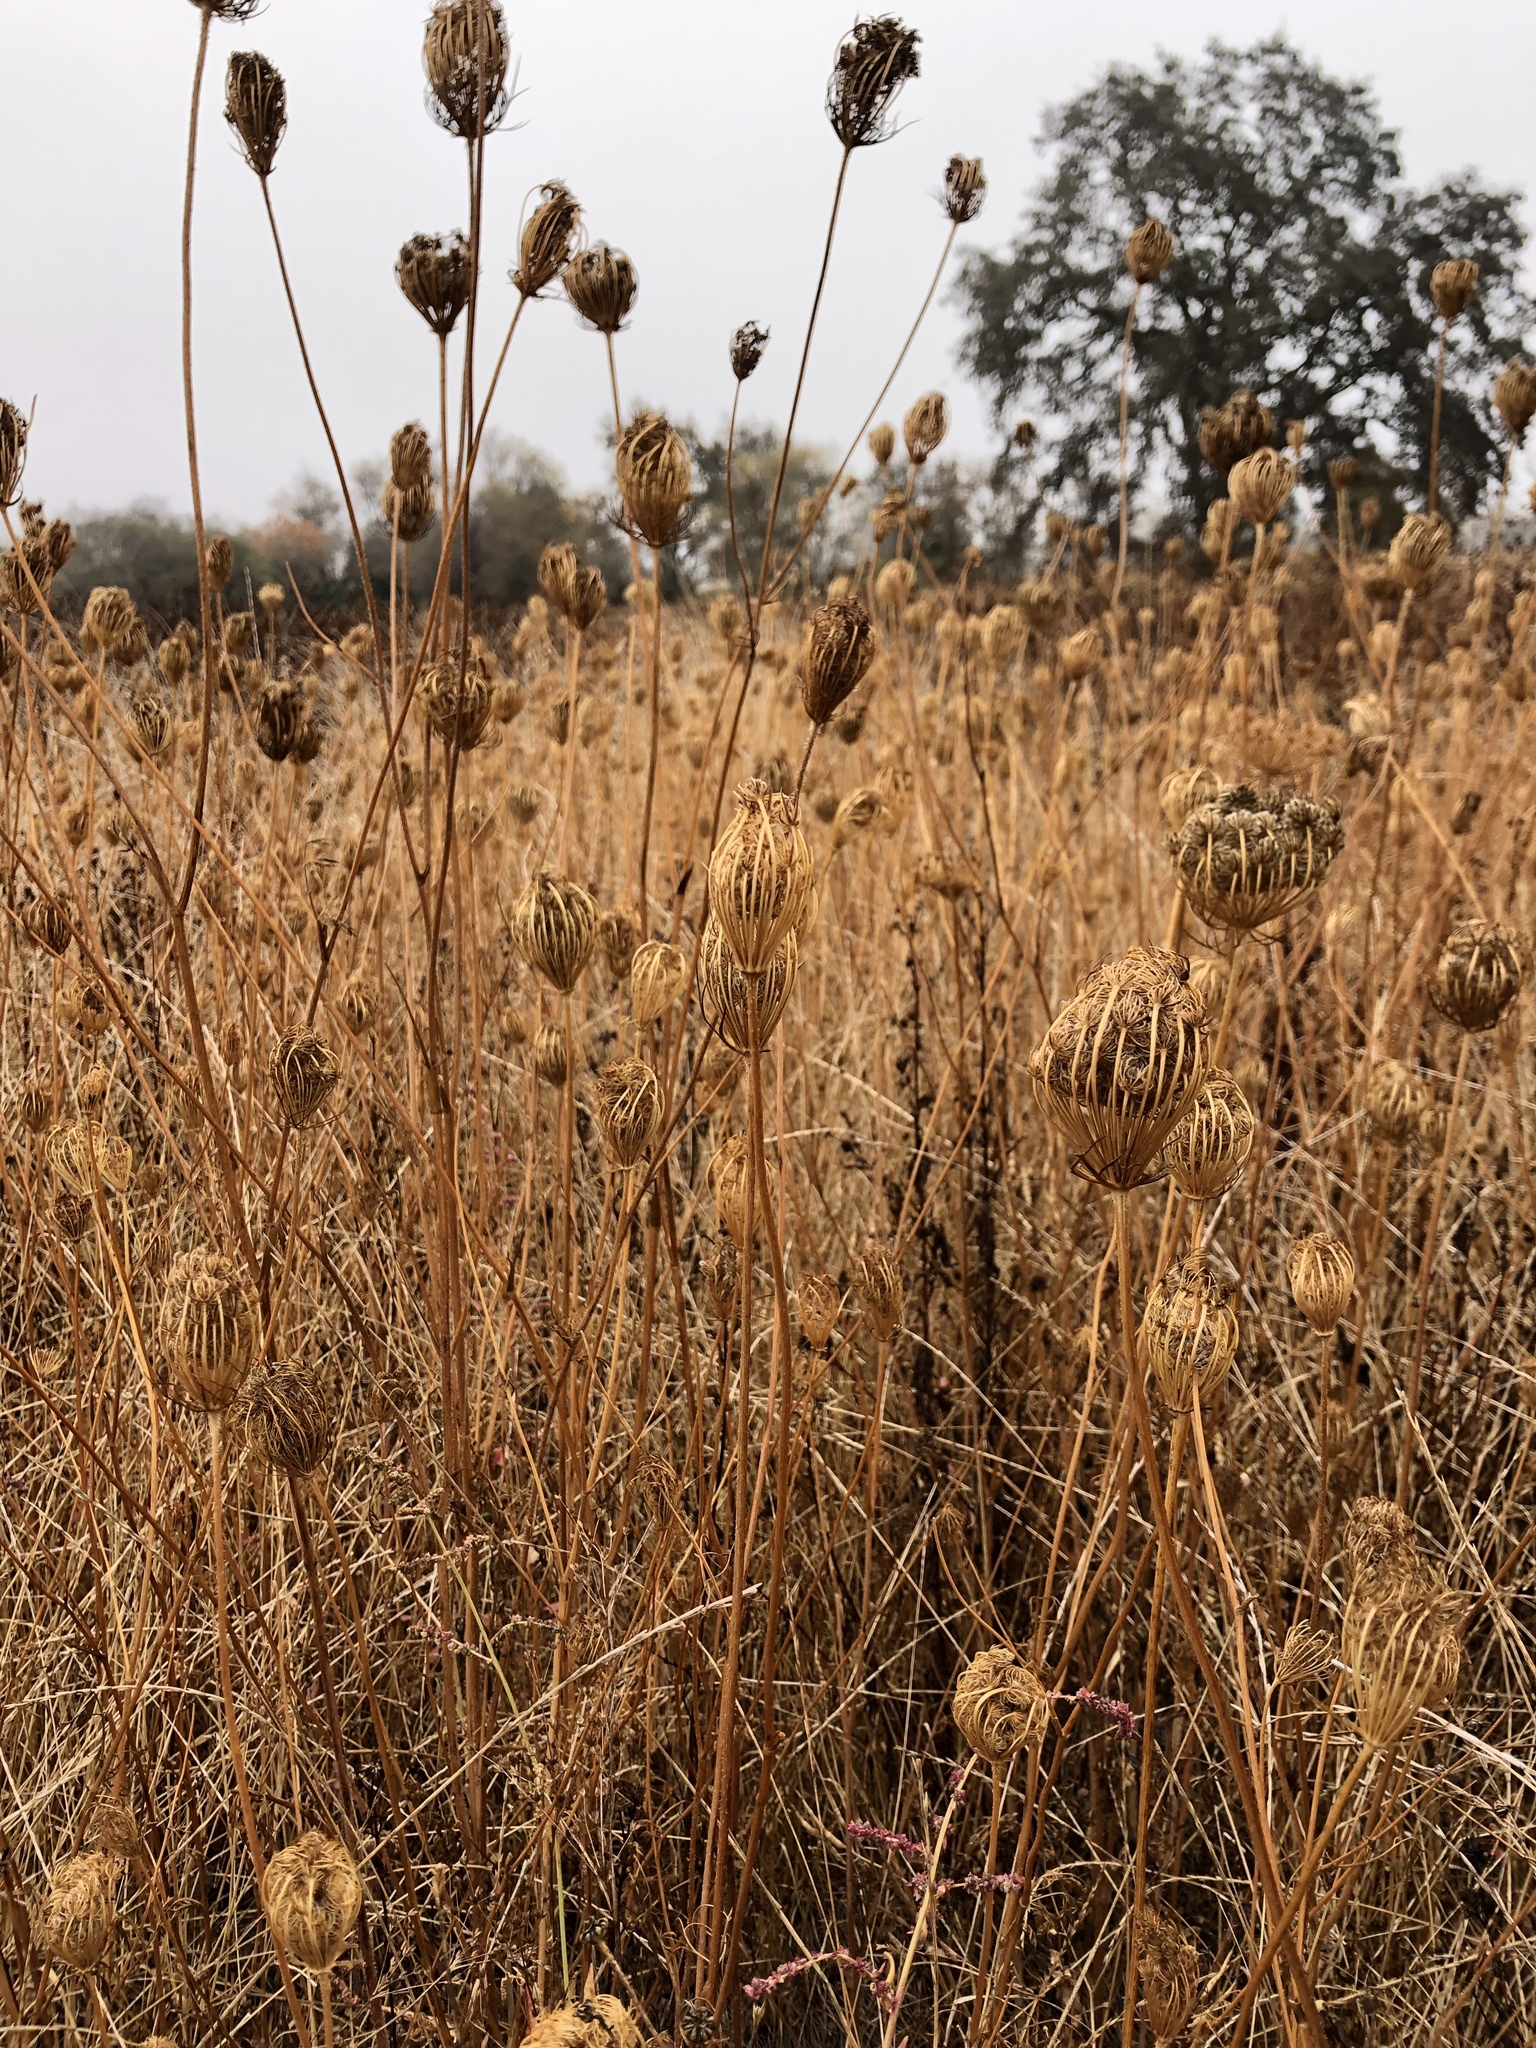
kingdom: Plantae
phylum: Tracheophyta
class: Magnoliopsida
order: Apiales
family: Apiaceae
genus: Daucus
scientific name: Daucus carota
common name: Wild carrot
